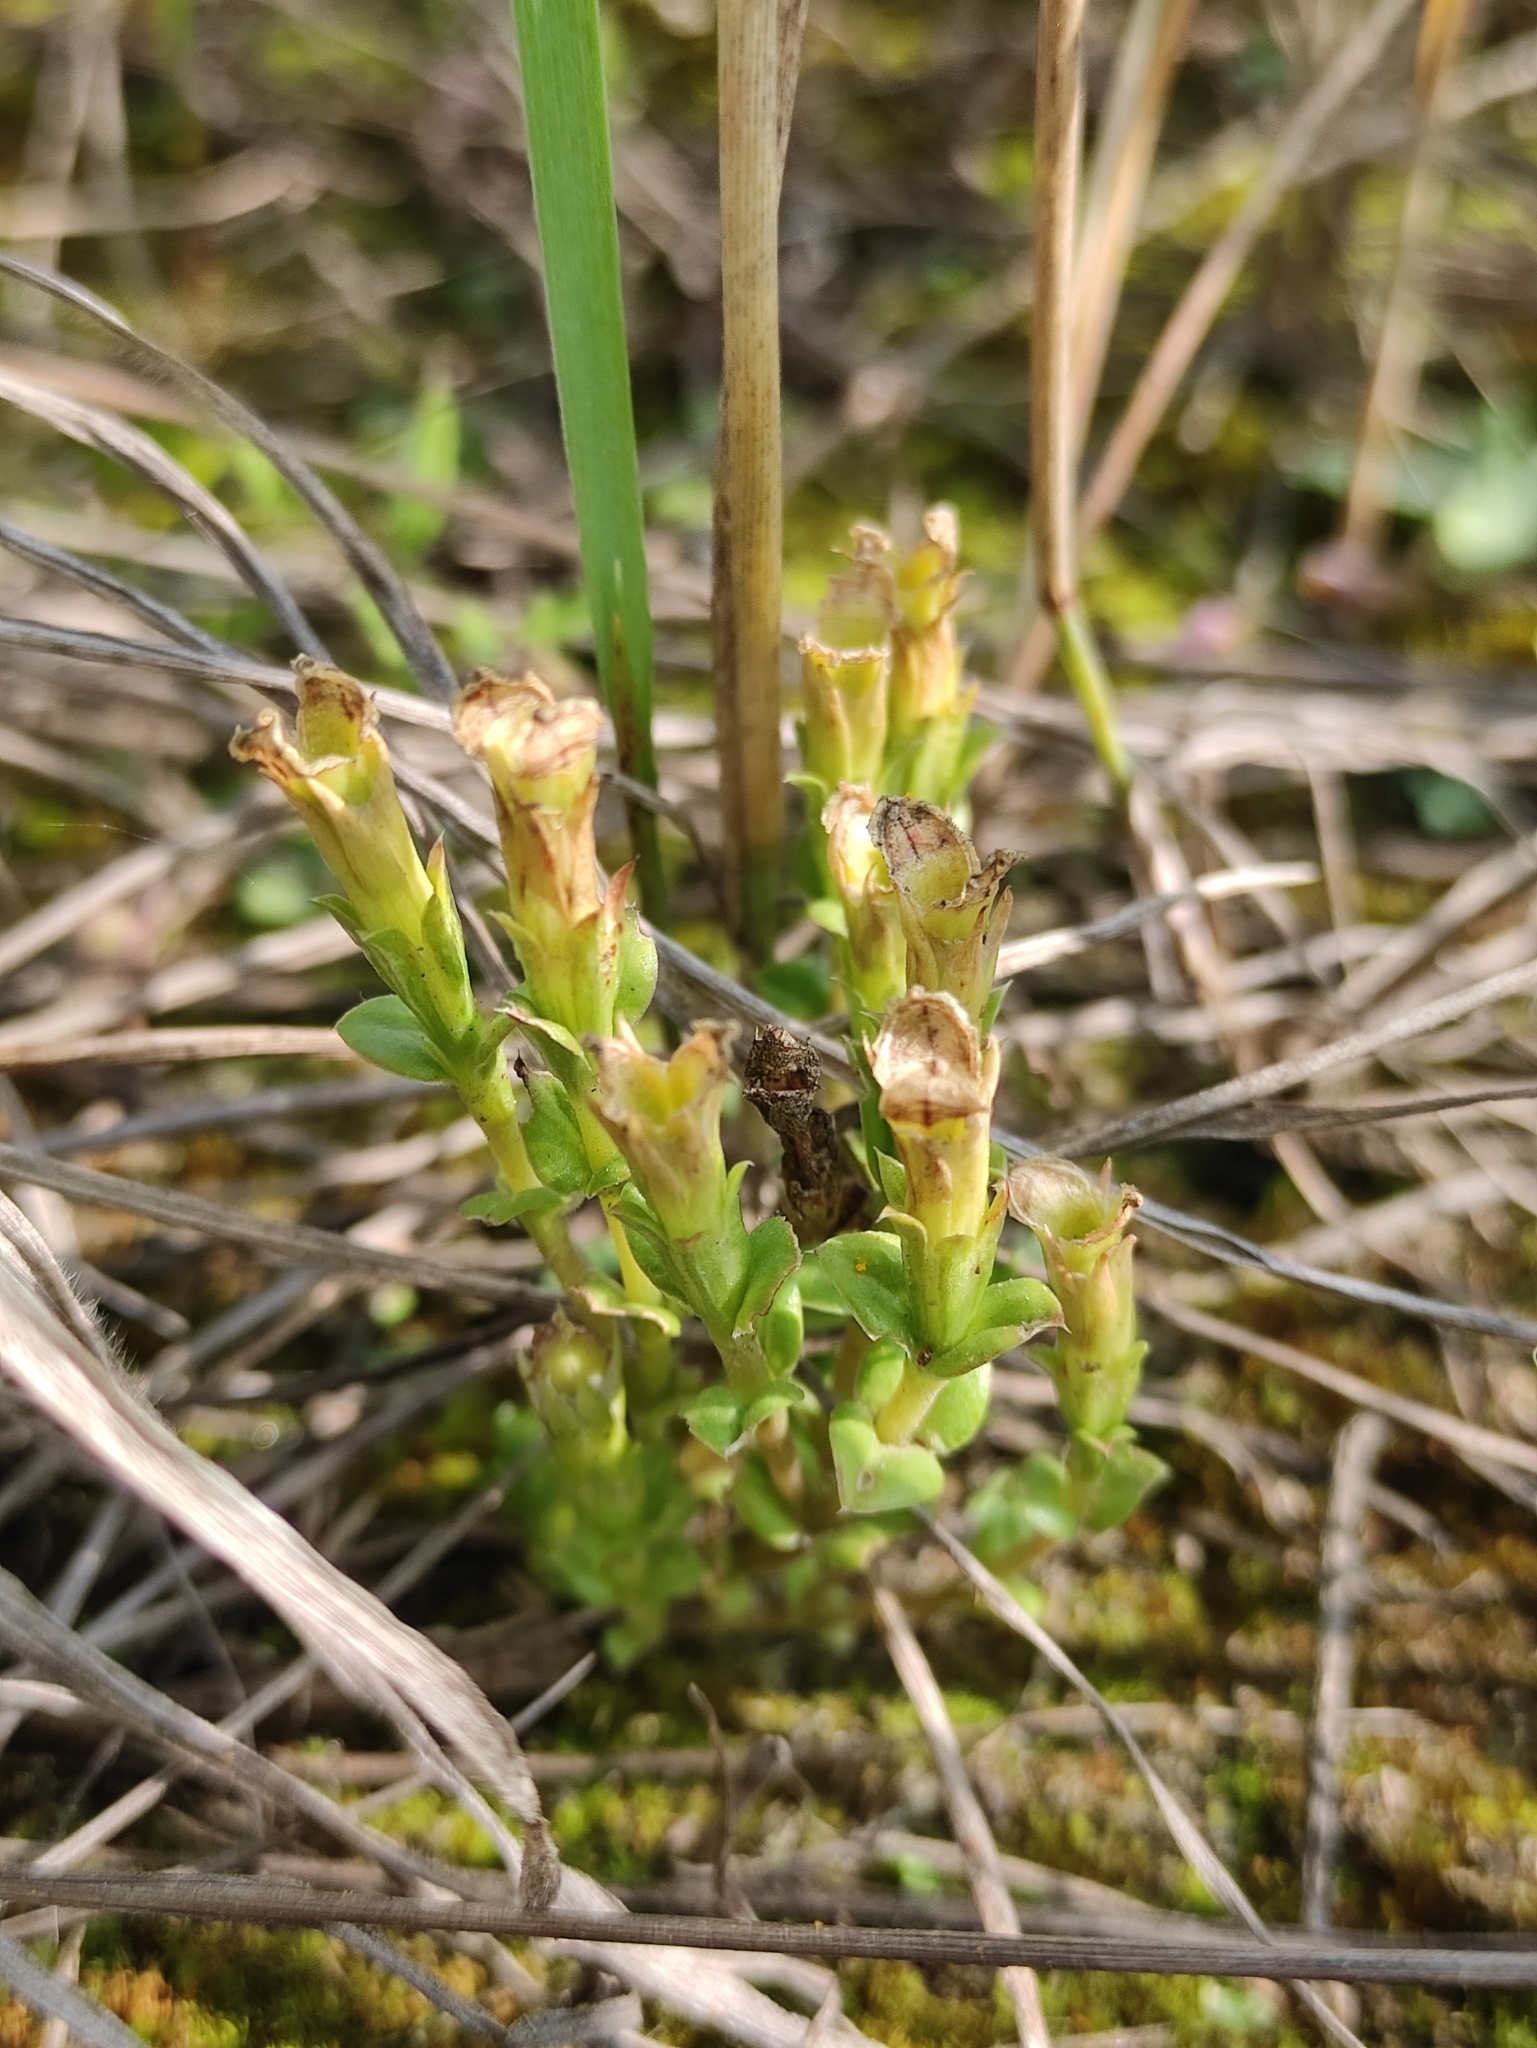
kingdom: Plantae
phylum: Tracheophyta
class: Magnoliopsida
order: Gentianales
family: Gentianaceae
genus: Gentiana
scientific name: Gentiana squarrosa
